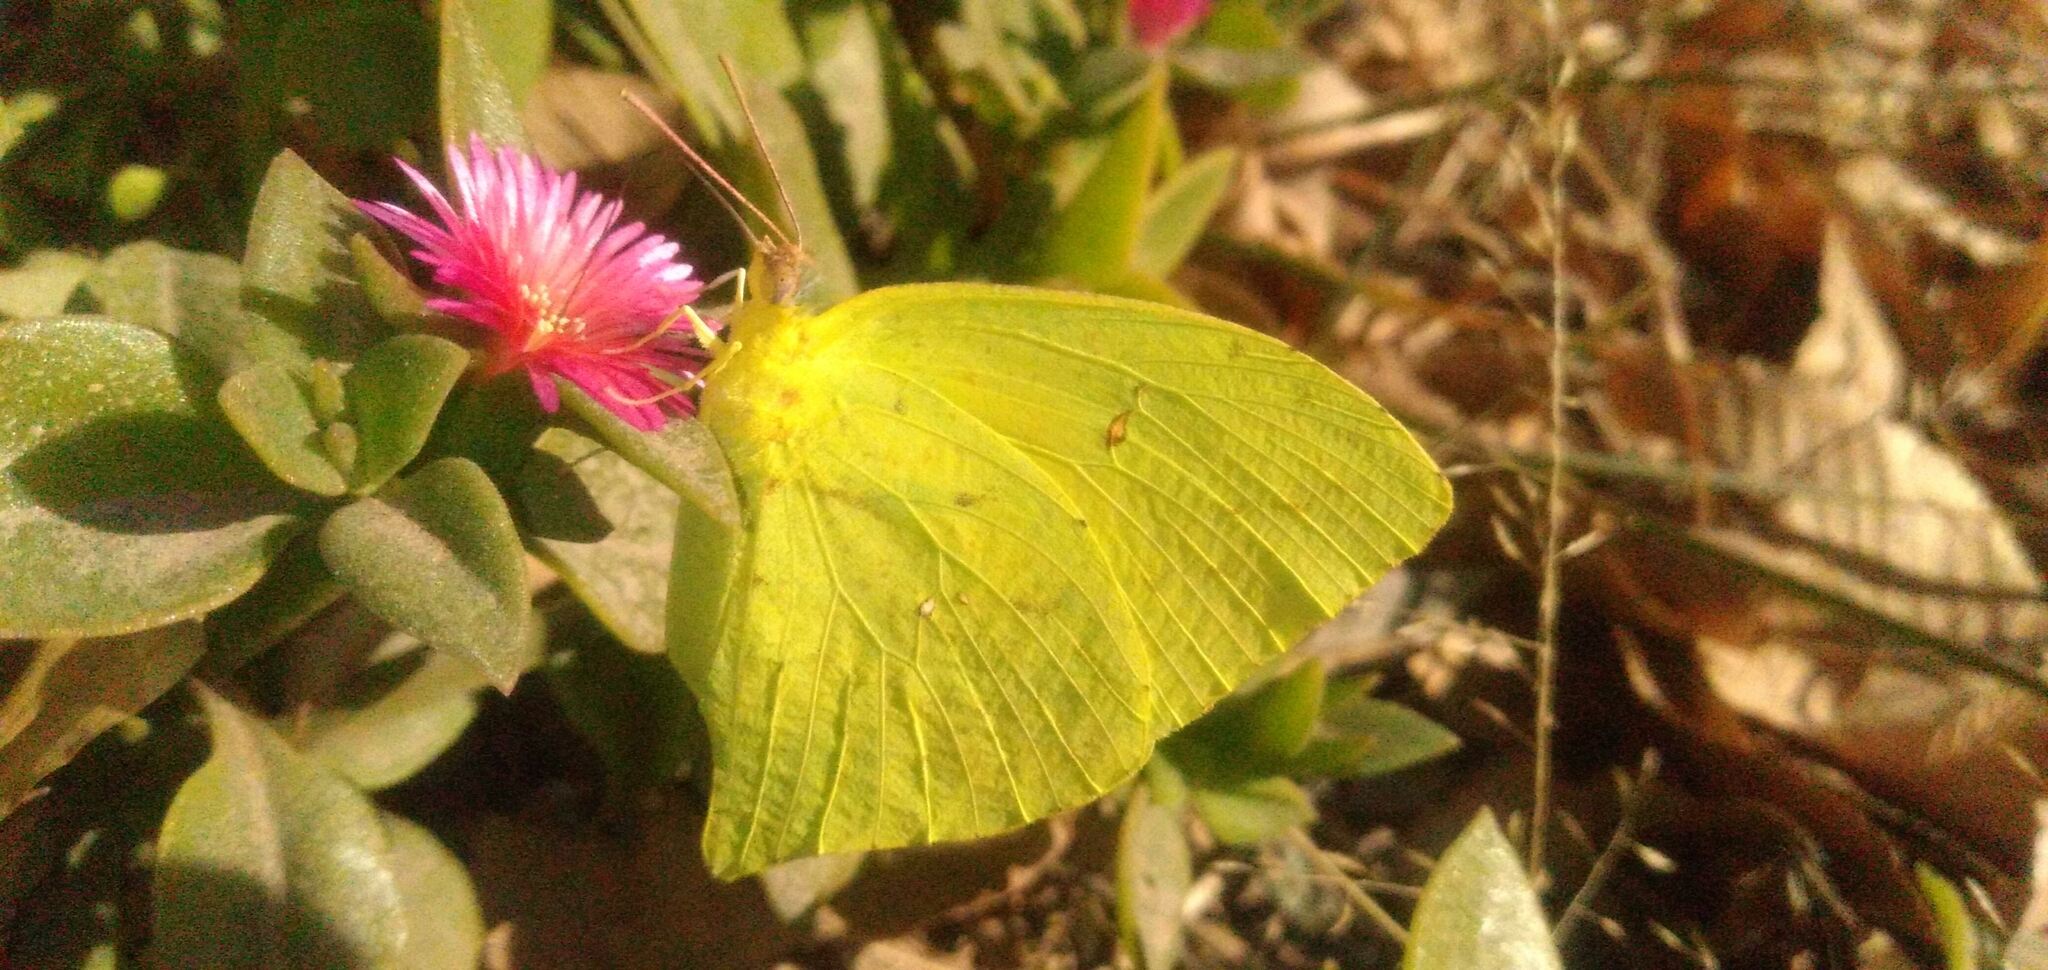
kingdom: Animalia
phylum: Arthropoda
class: Insecta
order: Lepidoptera
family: Pieridae
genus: Phoebis
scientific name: Phoebis neocypris
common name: Tailed sulphur
